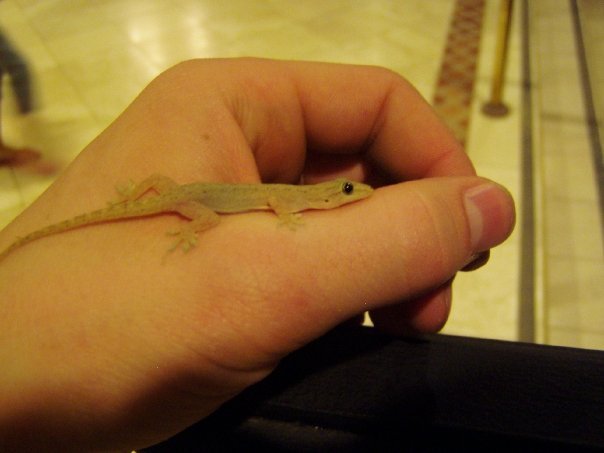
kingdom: Animalia
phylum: Chordata
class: Squamata
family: Gekkonidae
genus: Hemidactylus
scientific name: Hemidactylus frenatus
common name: Common house gecko
